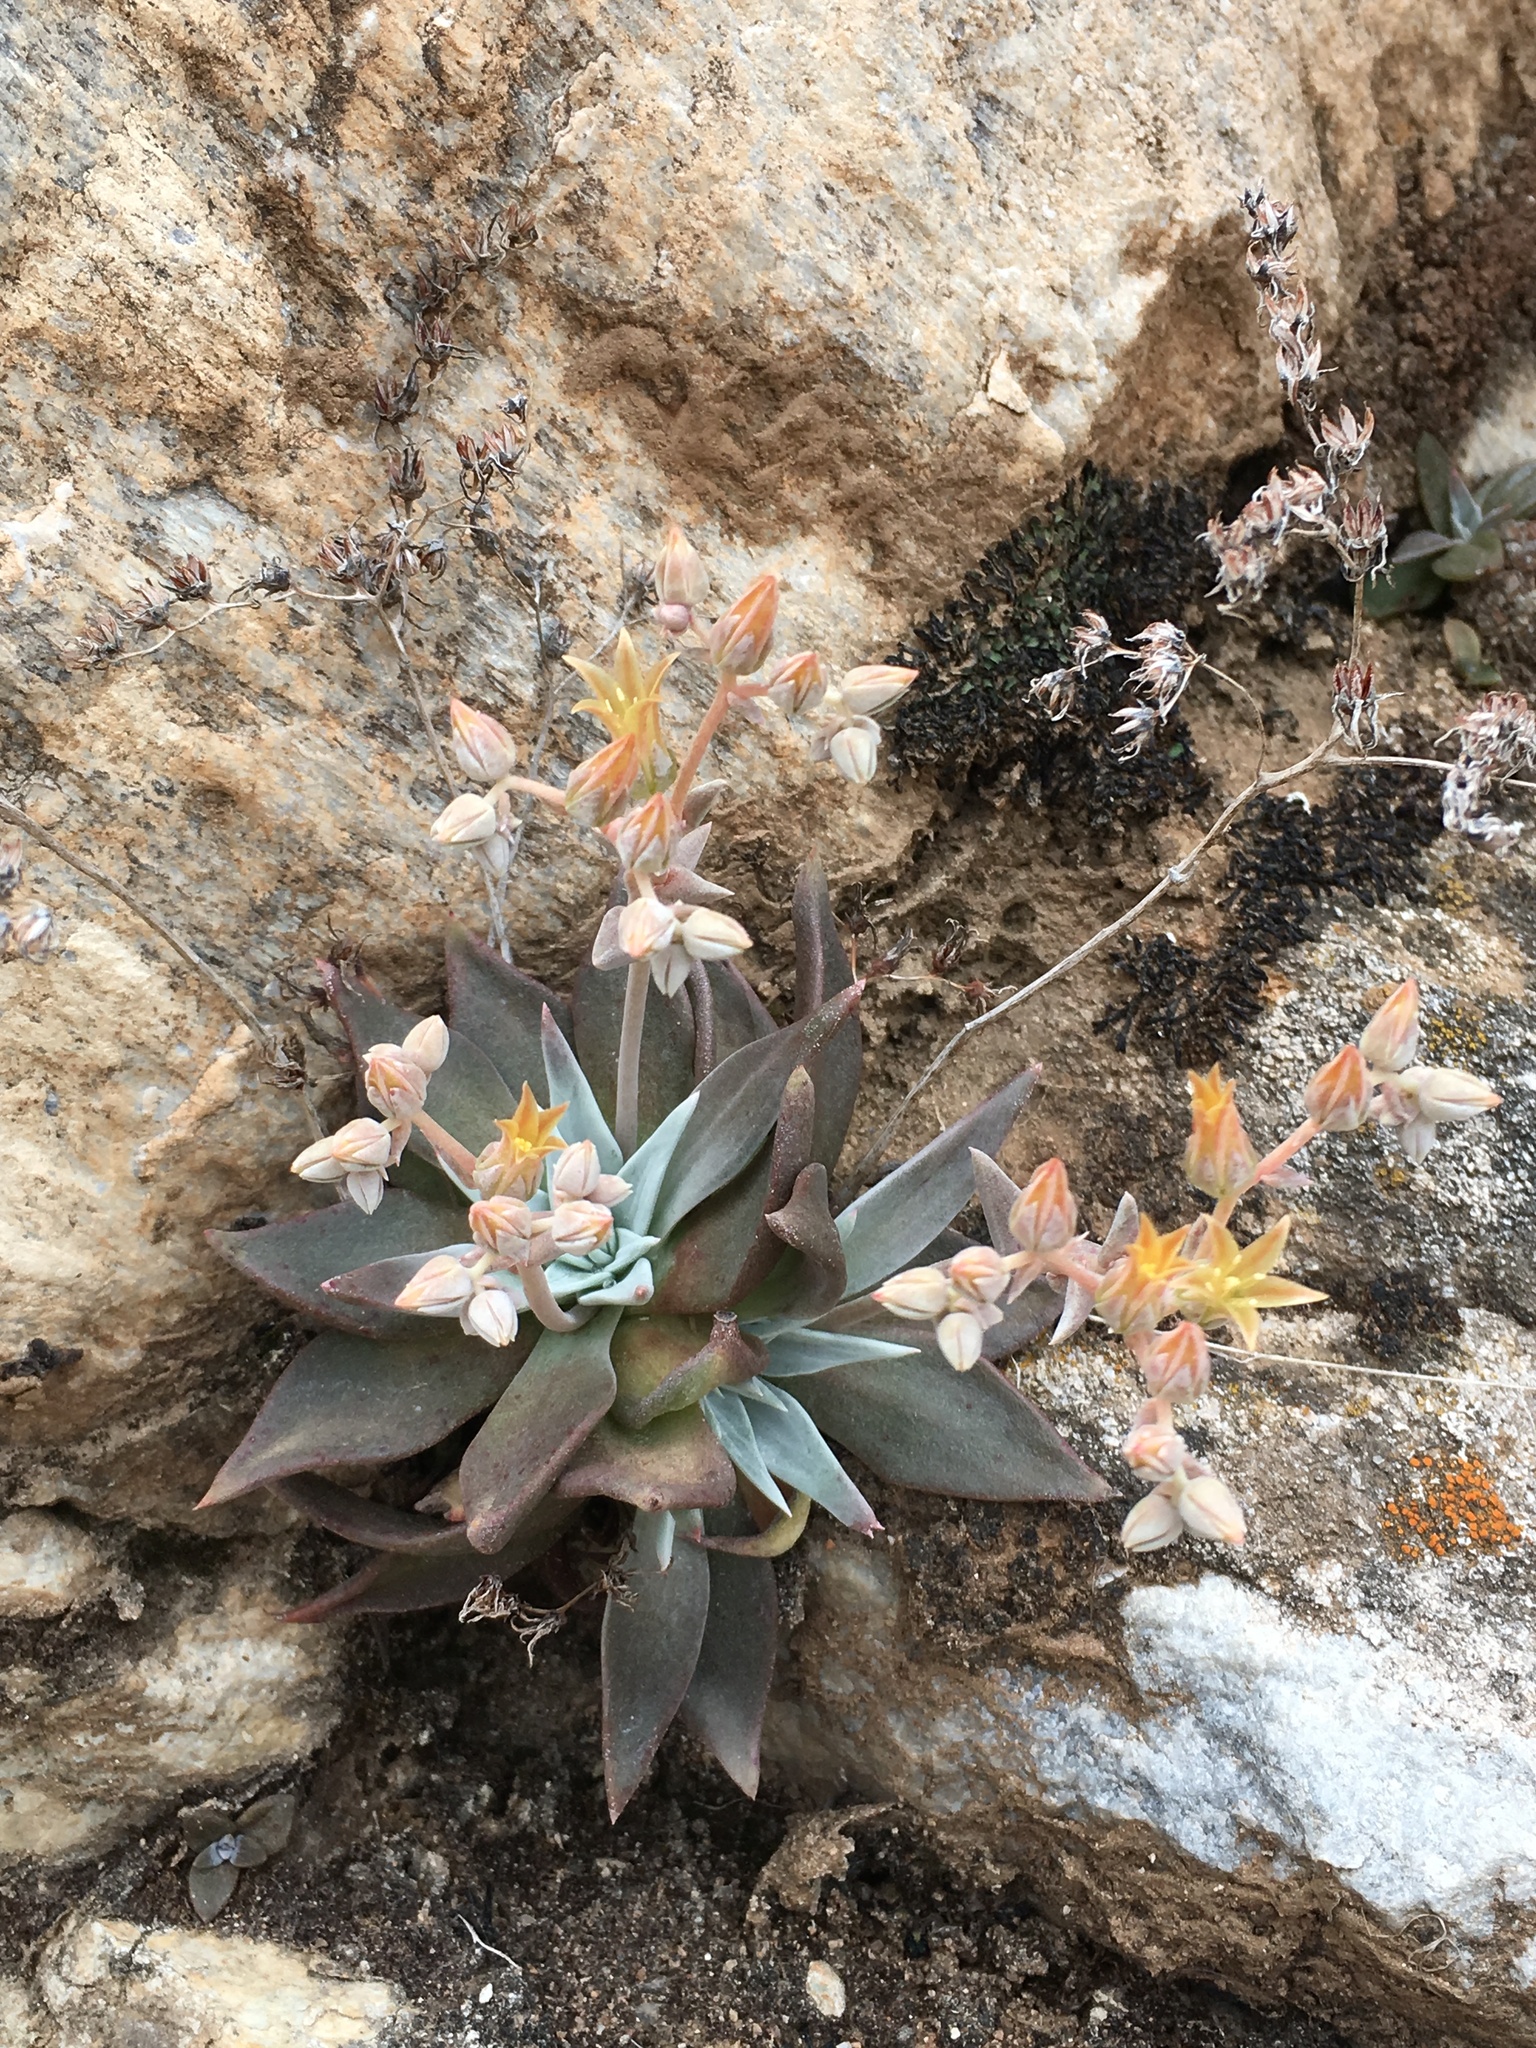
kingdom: Plantae
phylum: Tracheophyta
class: Magnoliopsida
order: Saxifragales
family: Crassulaceae
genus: Dudleya
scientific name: Dudleya abramsii
